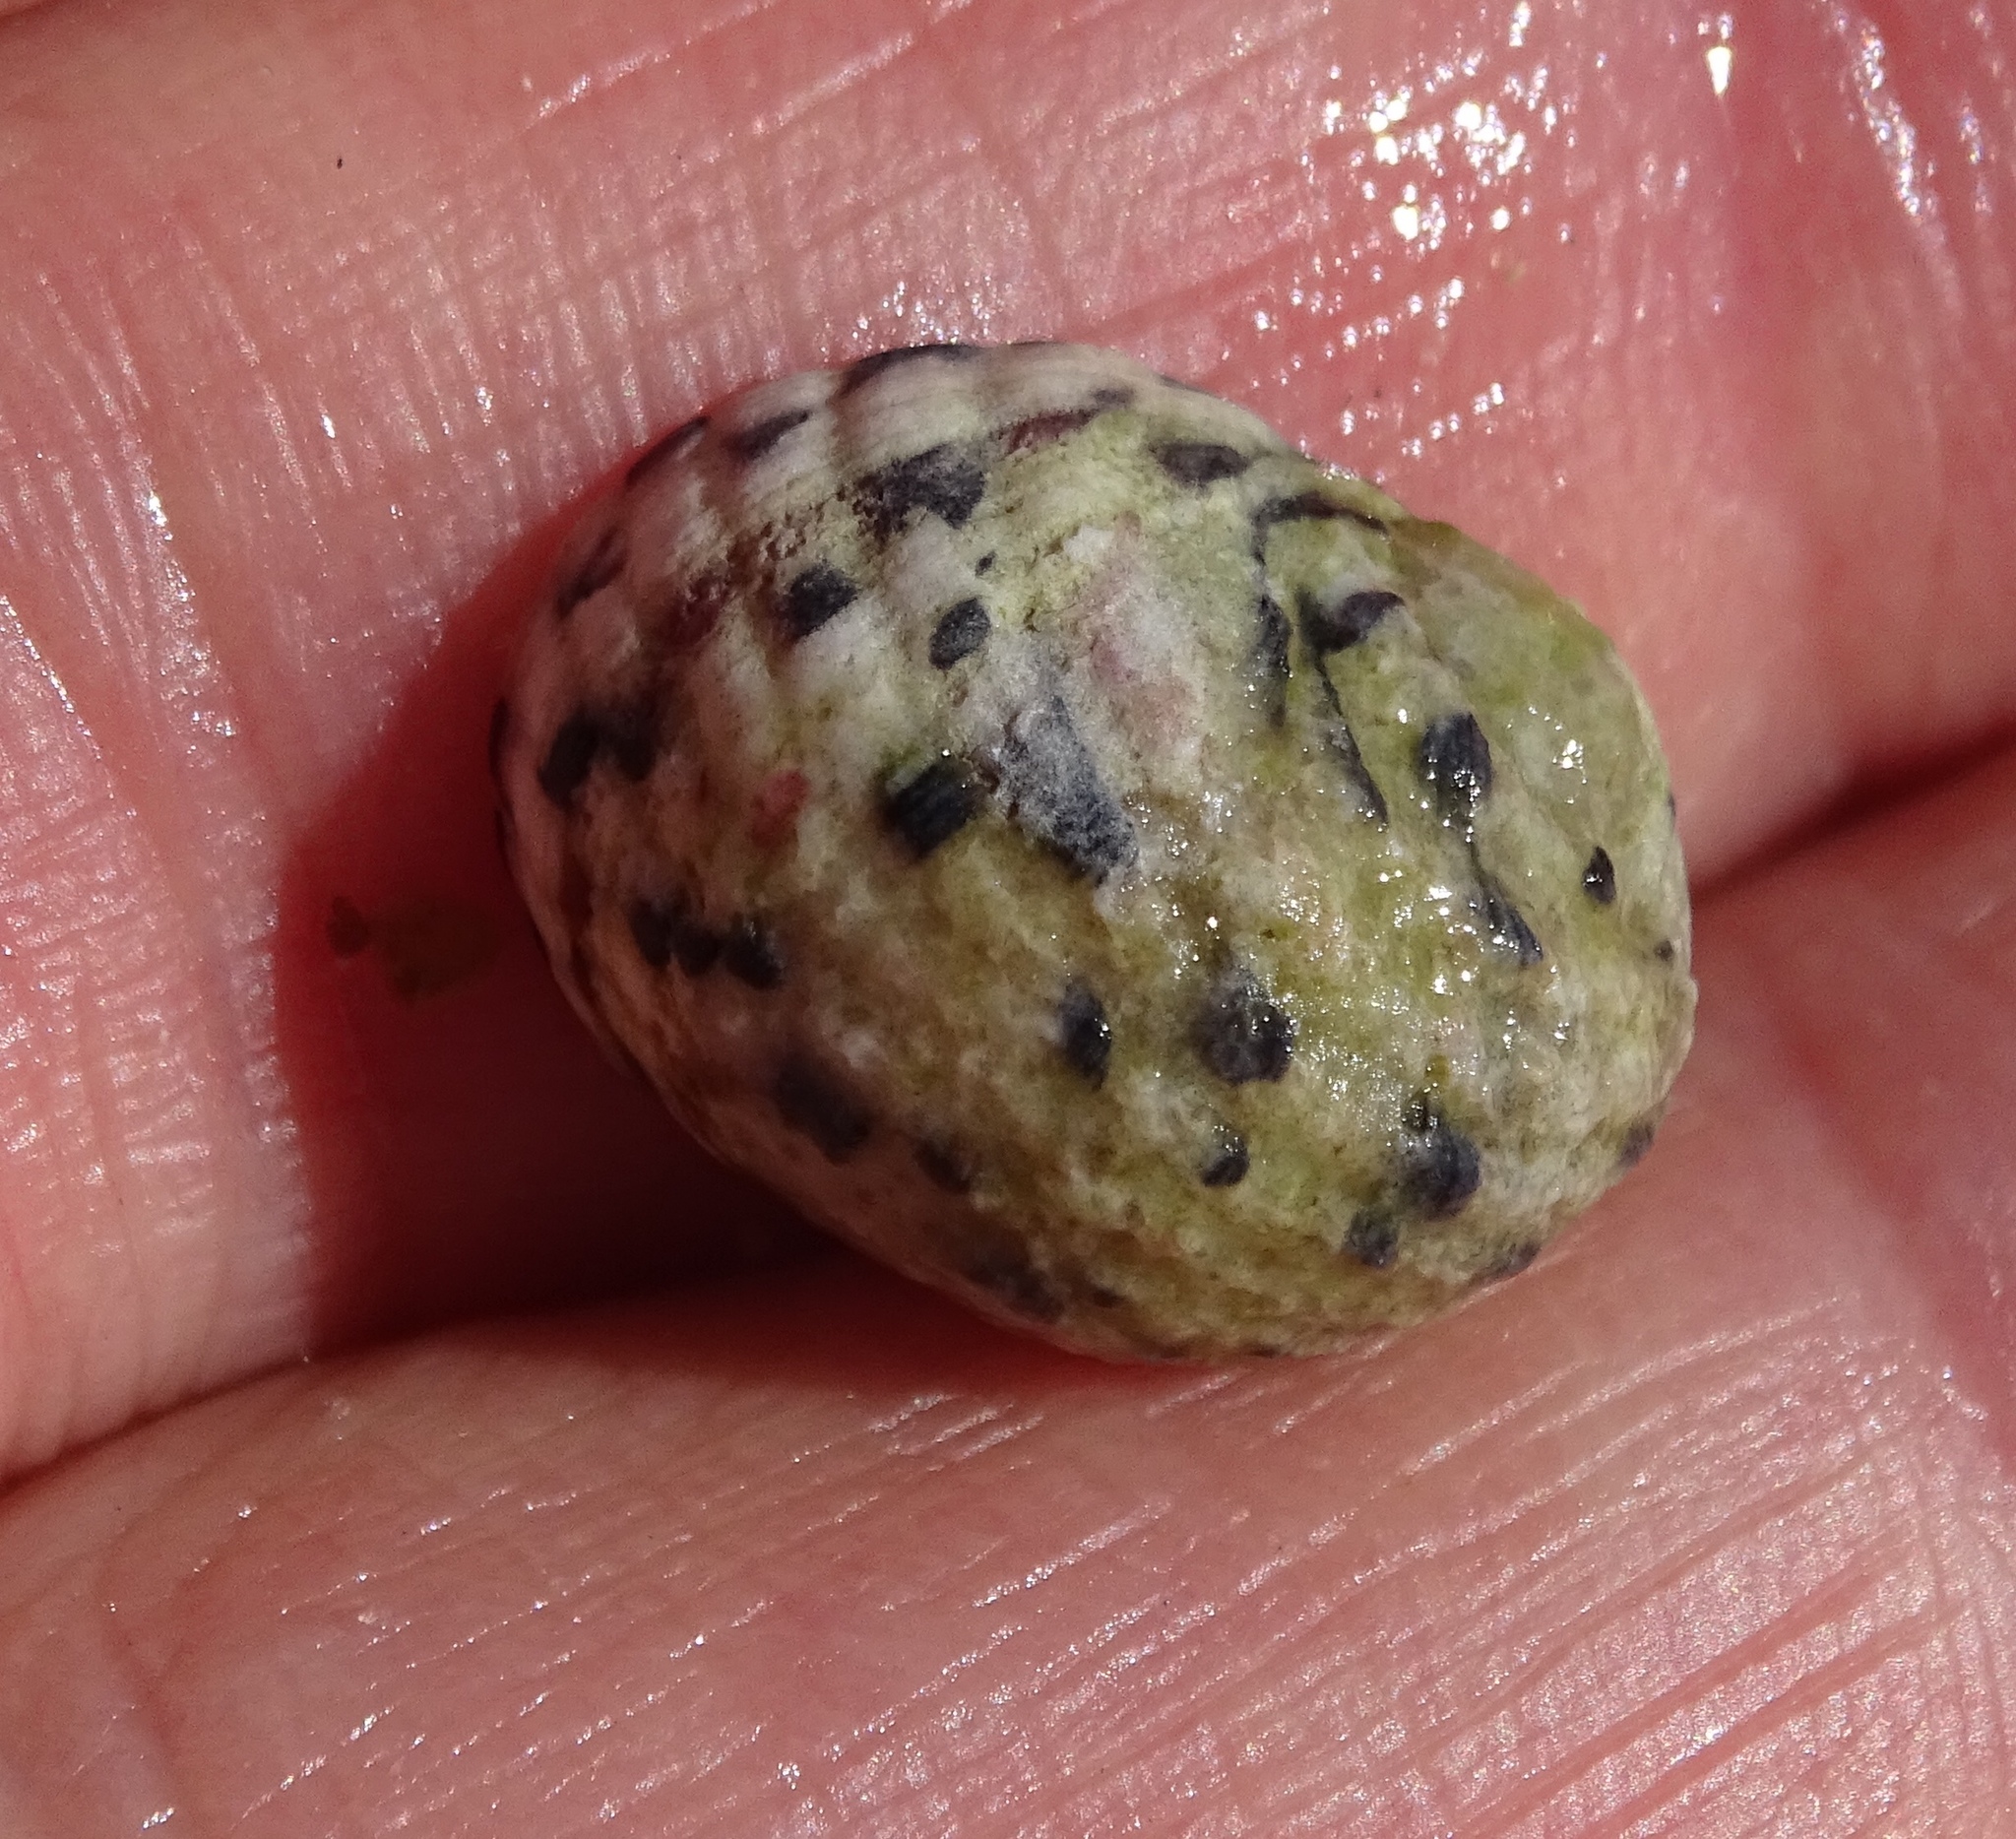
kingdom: Animalia
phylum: Mollusca
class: Gastropoda
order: Cycloneritida
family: Neritidae
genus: Nerita
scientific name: Nerita versicolor
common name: Four-tooth nerite
